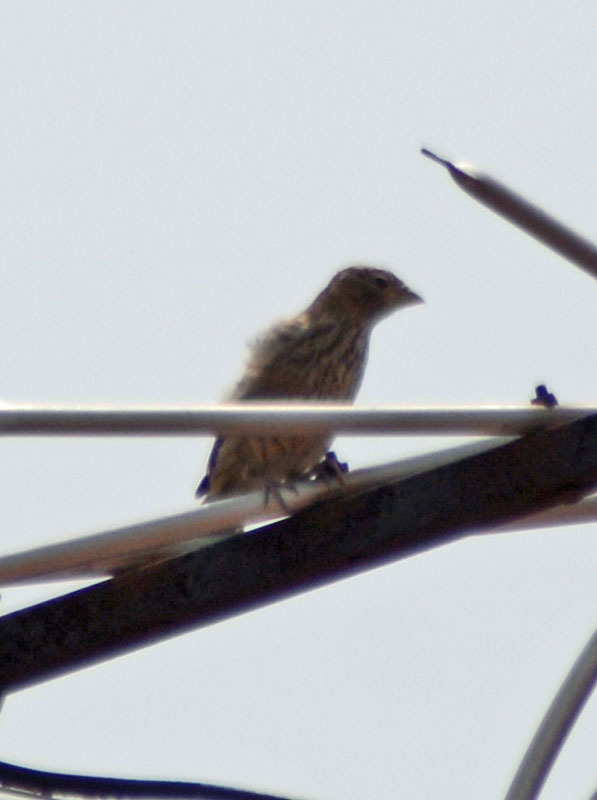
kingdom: Animalia
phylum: Chordata
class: Aves
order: Passeriformes
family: Fringillidae
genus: Haemorhous
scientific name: Haemorhous mexicanus
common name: House finch
